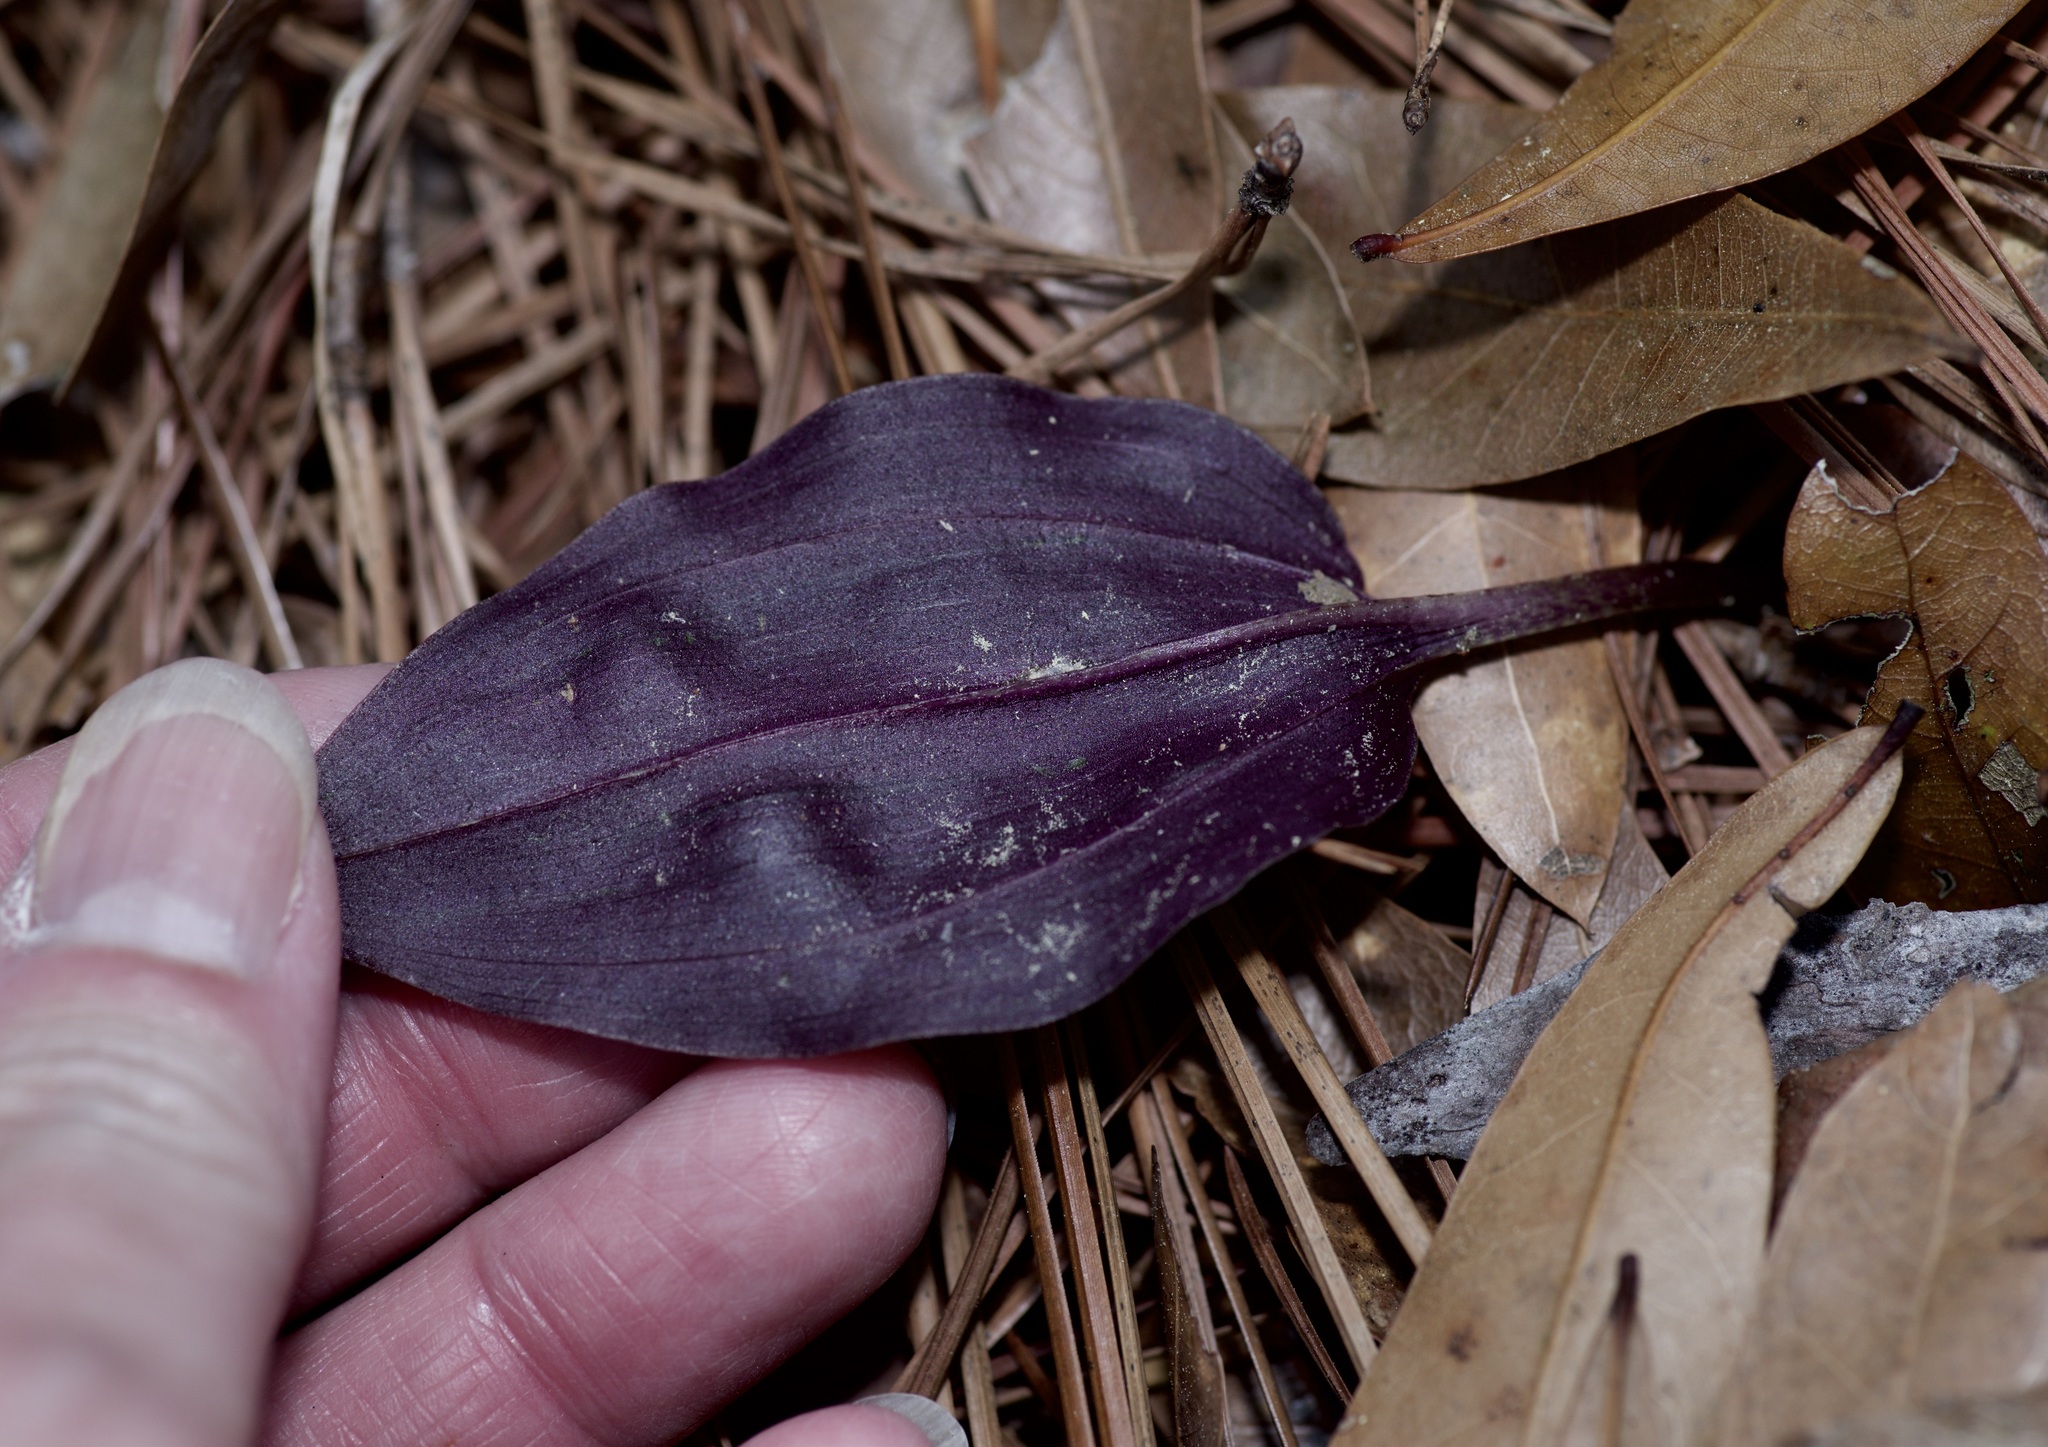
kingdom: Plantae
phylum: Tracheophyta
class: Liliopsida
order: Asparagales
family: Orchidaceae
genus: Tipularia
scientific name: Tipularia discolor
